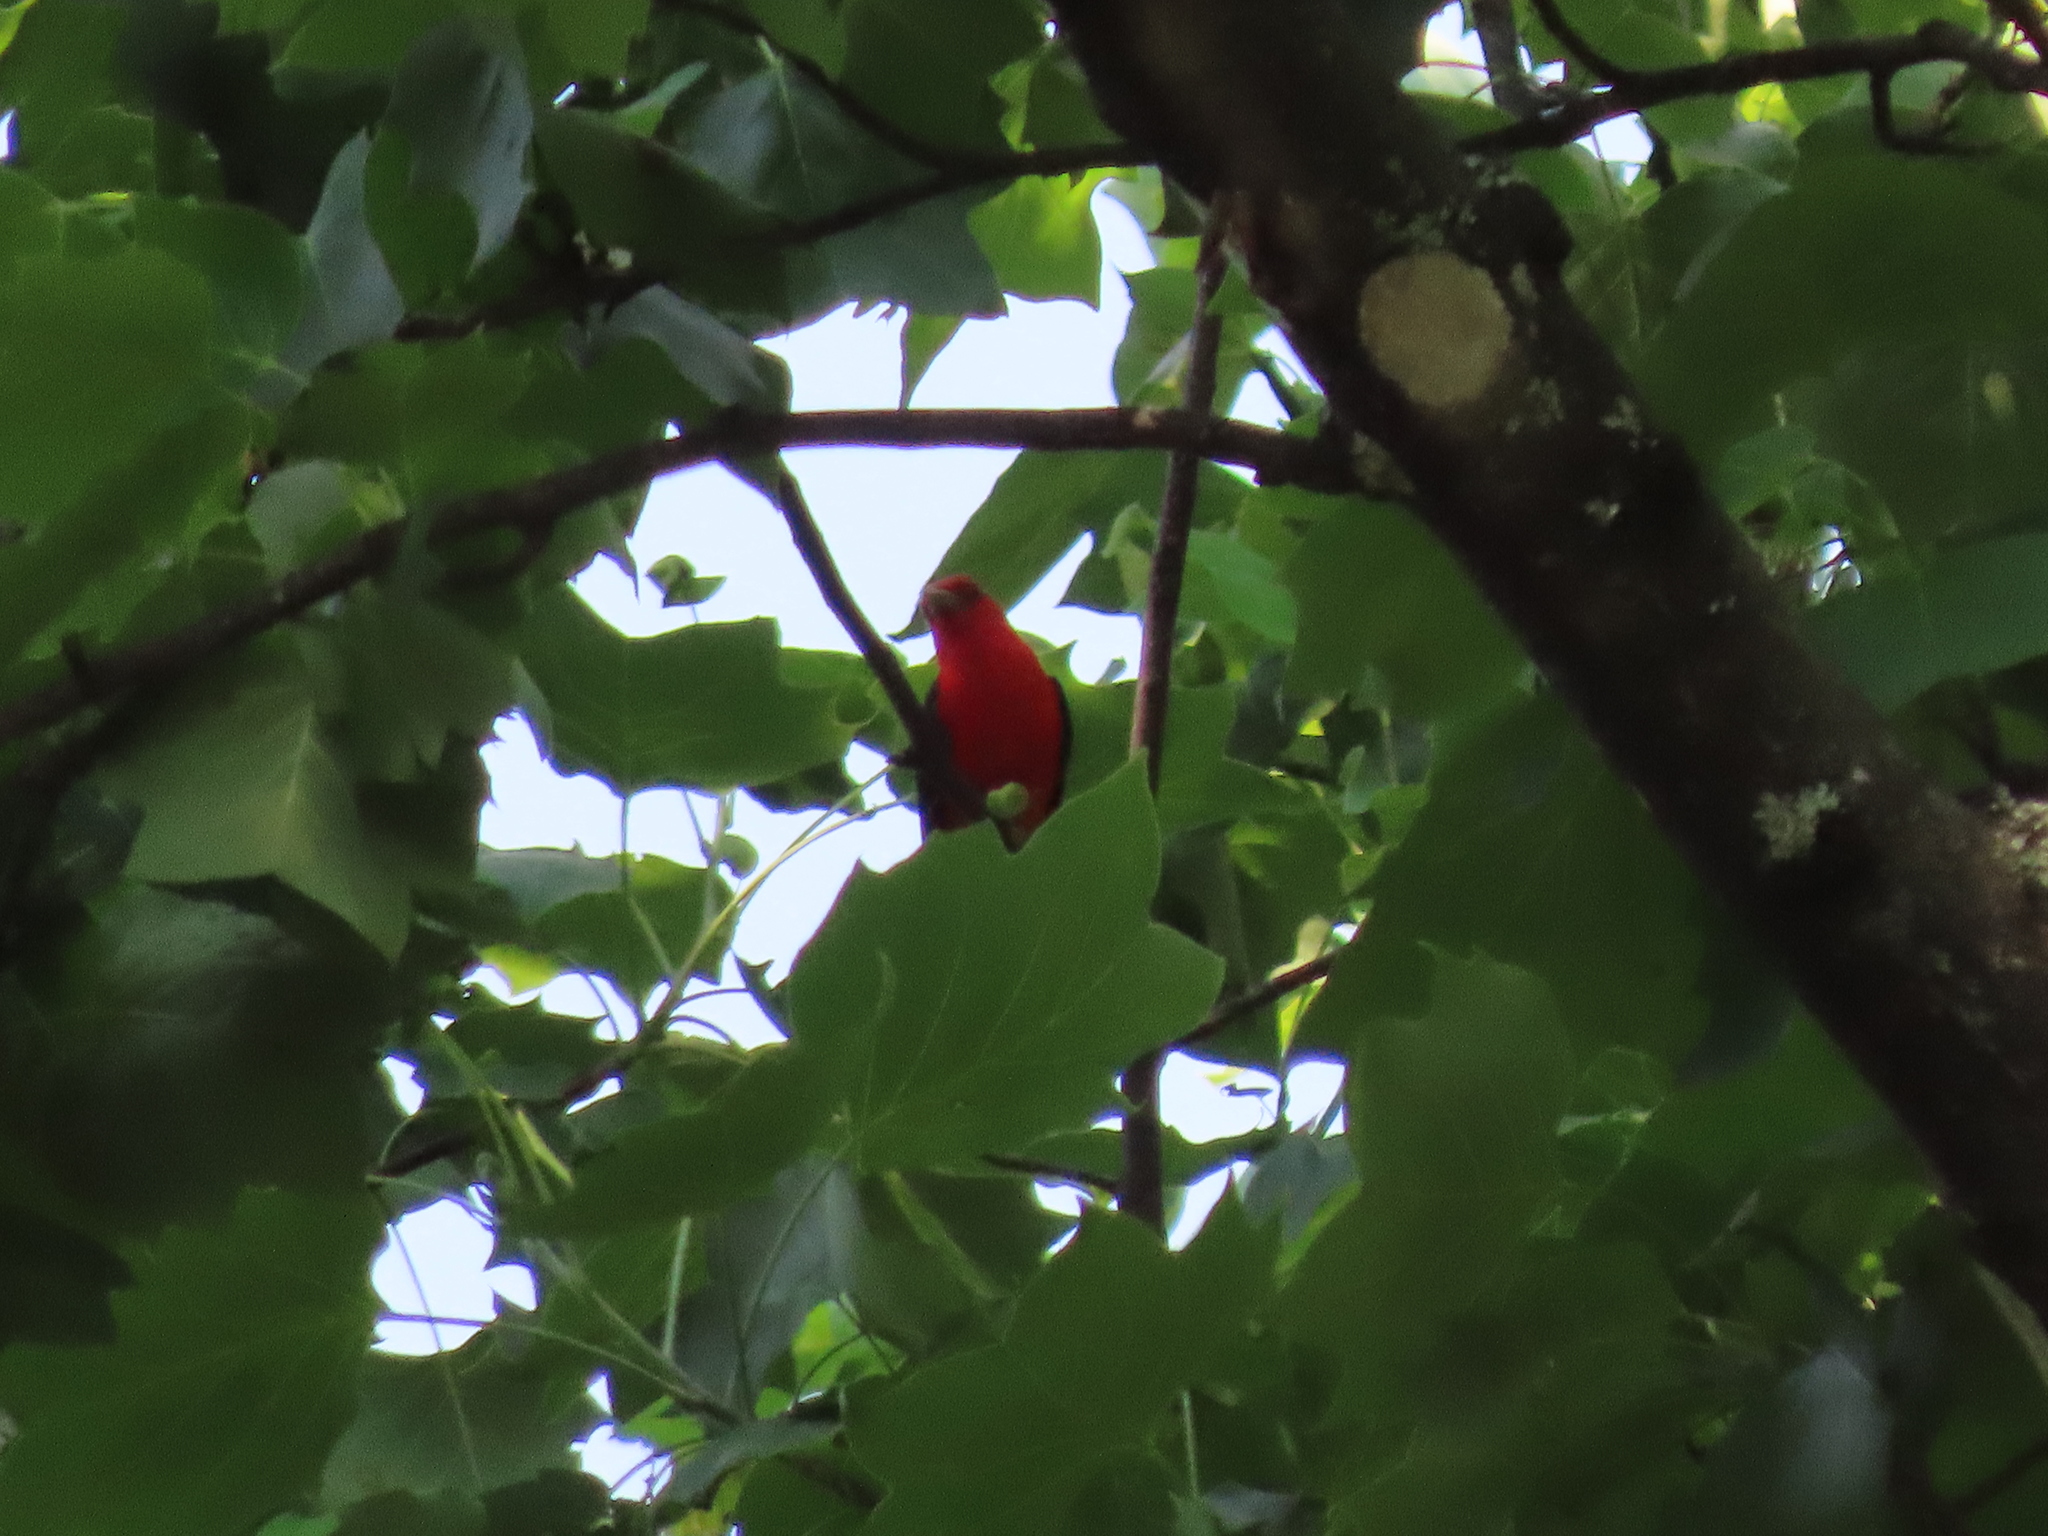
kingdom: Animalia
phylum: Chordata
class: Aves
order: Passeriformes
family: Cardinalidae
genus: Piranga
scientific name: Piranga olivacea
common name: Scarlet tanager
